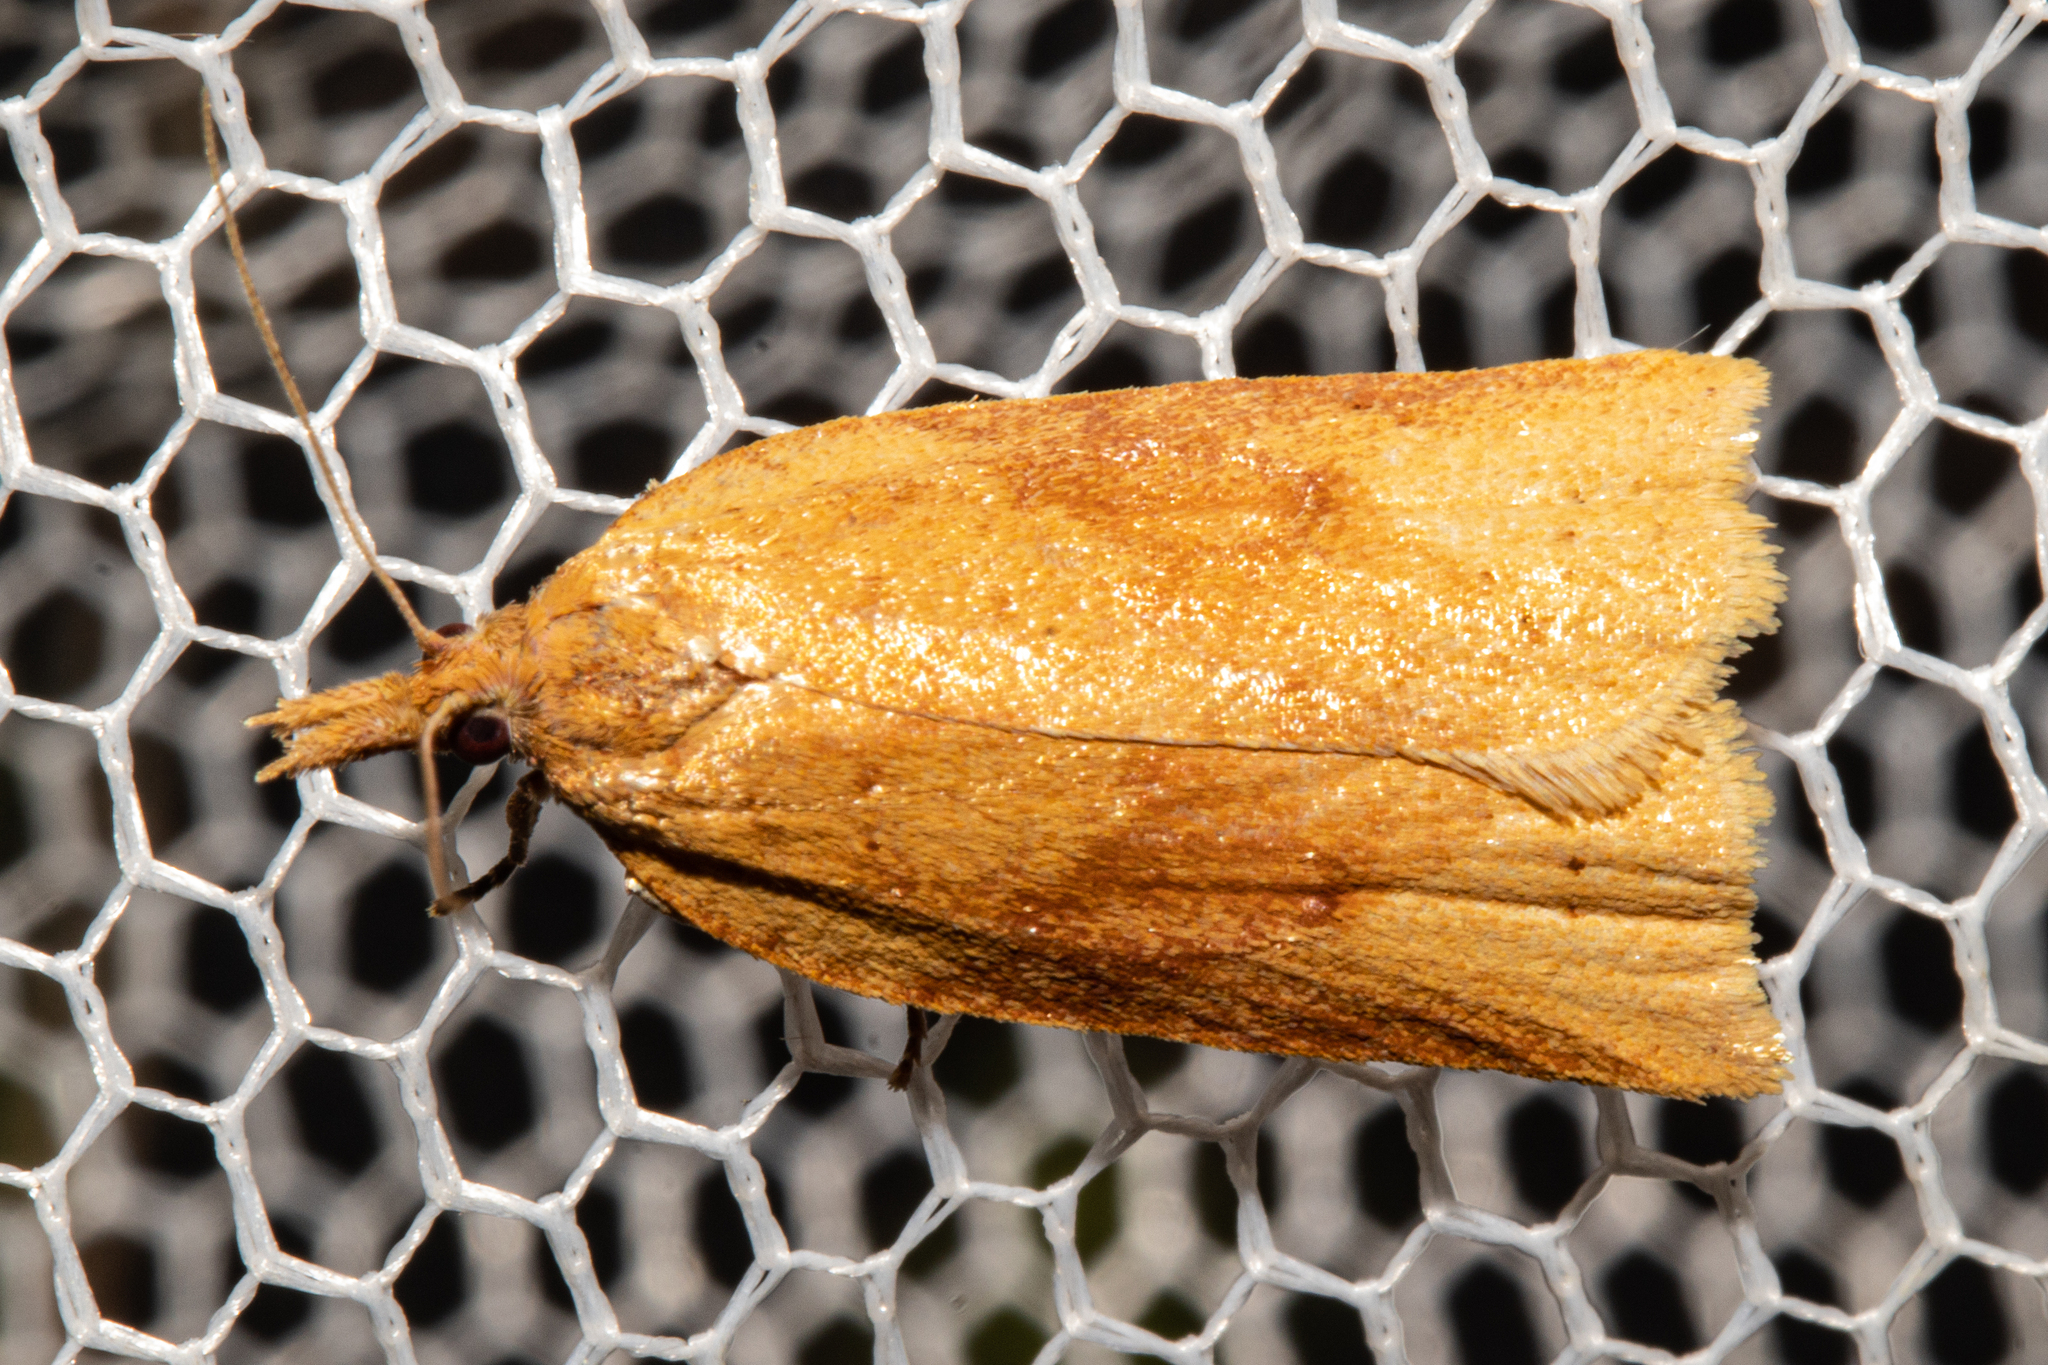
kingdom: Animalia
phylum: Arthropoda
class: Insecta
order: Lepidoptera
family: Tortricidae
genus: Apoctena
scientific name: Apoctena conditana
